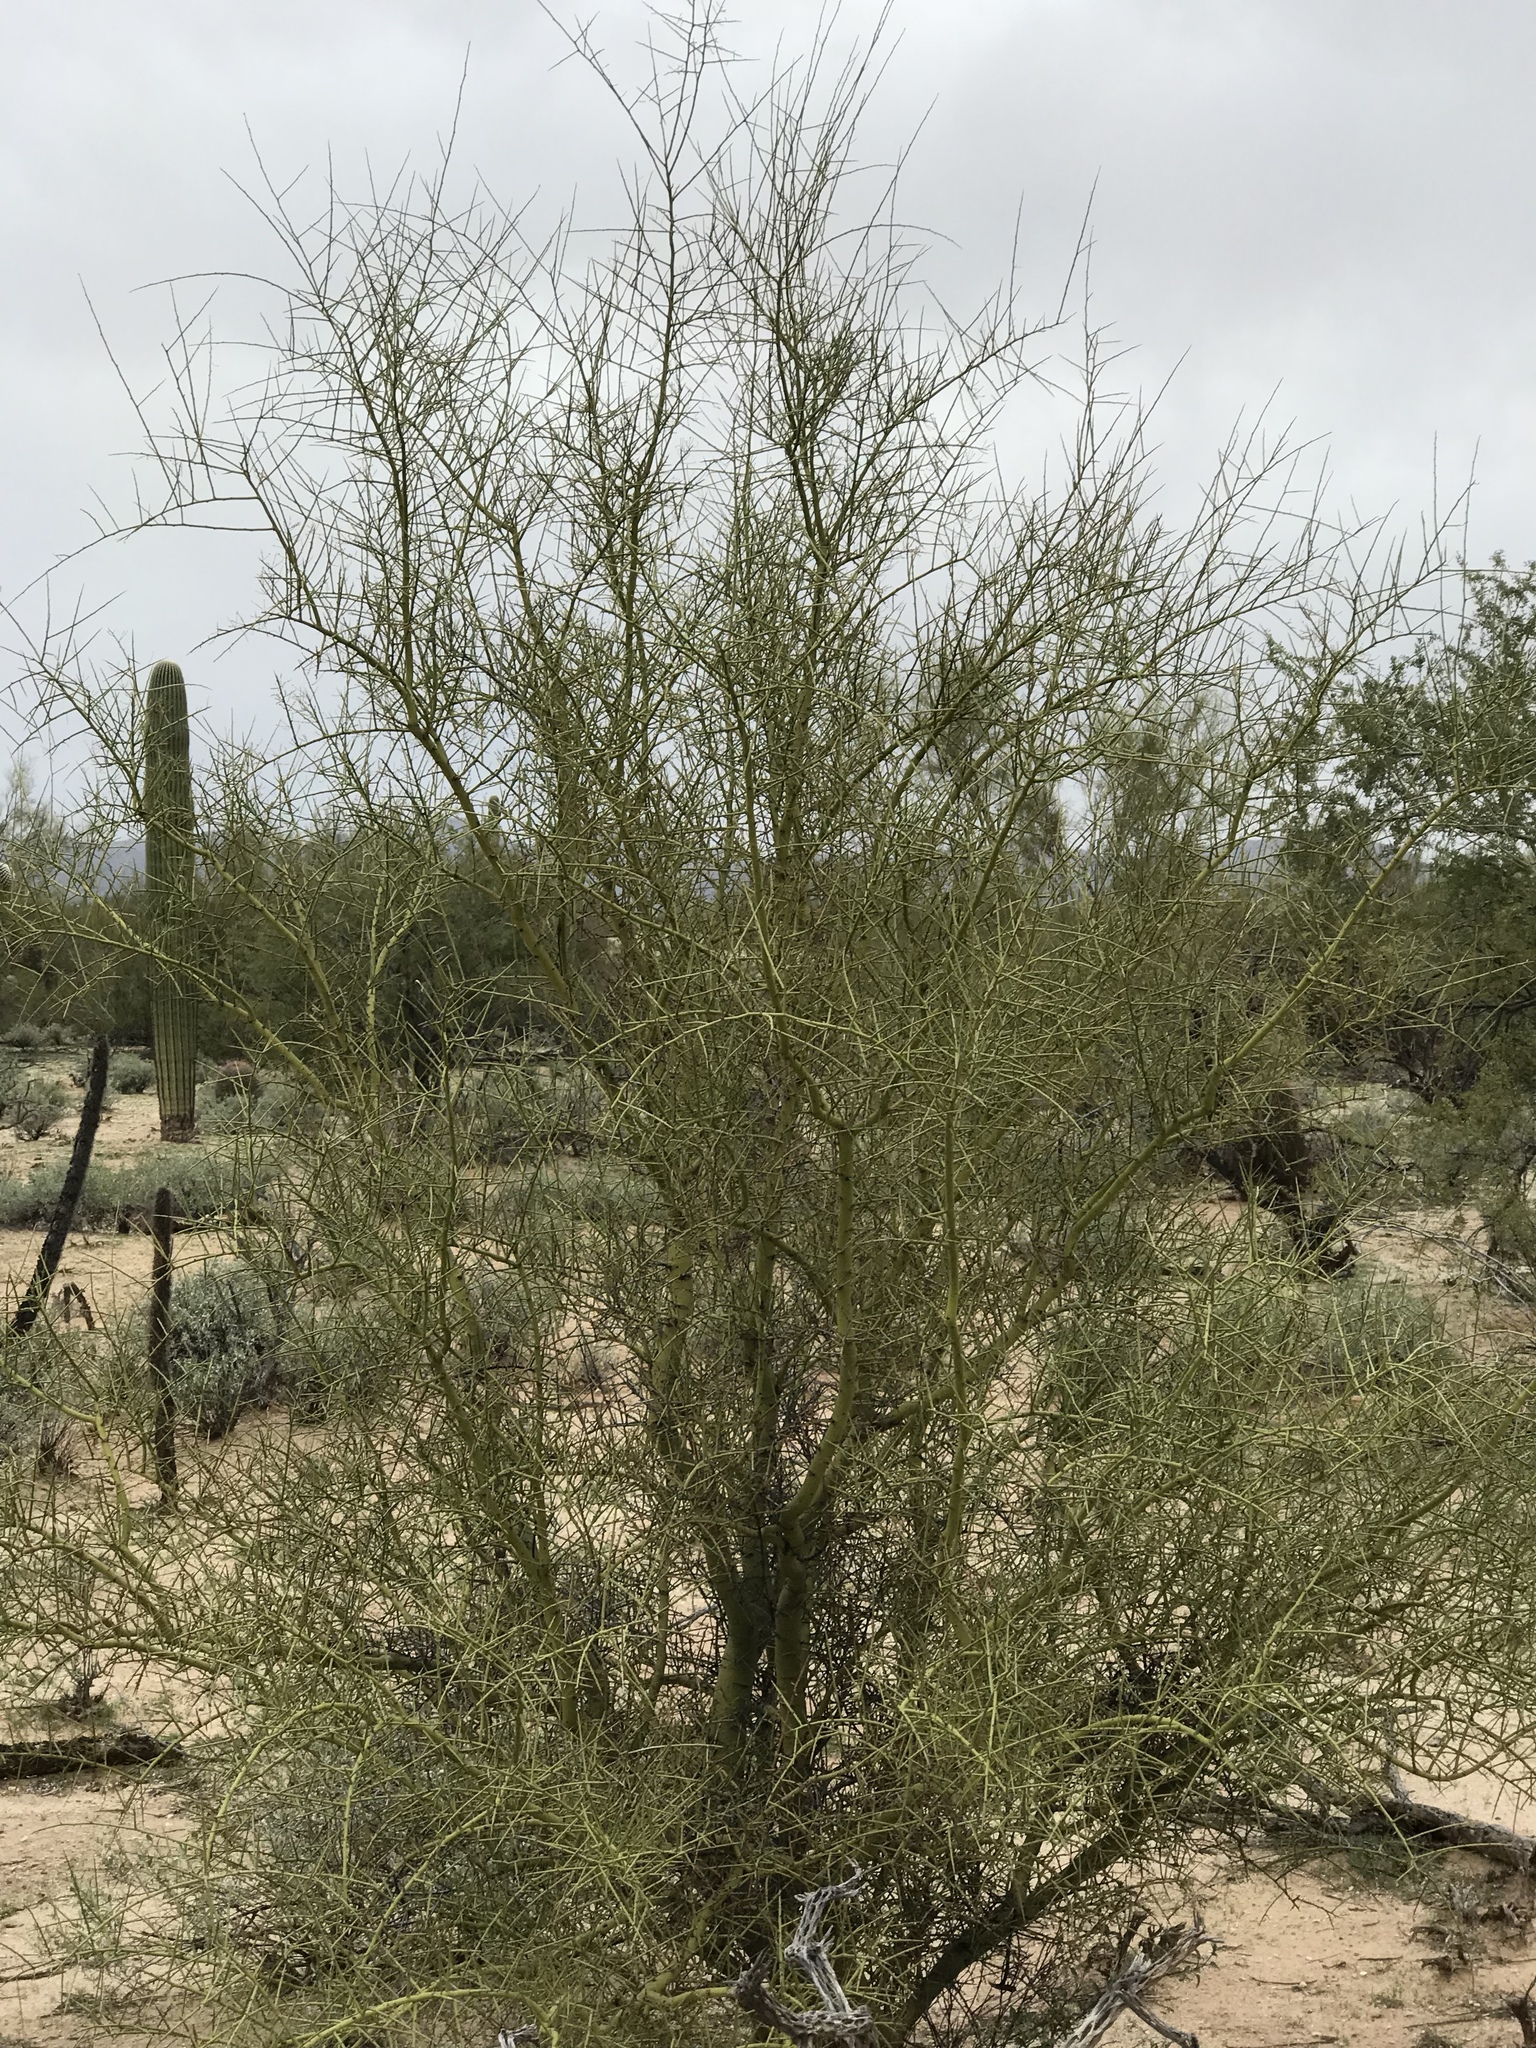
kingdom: Plantae
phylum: Tracheophyta
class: Magnoliopsida
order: Fabales
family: Fabaceae
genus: Parkinsonia
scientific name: Parkinsonia microphylla
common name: Yellow paloverde
